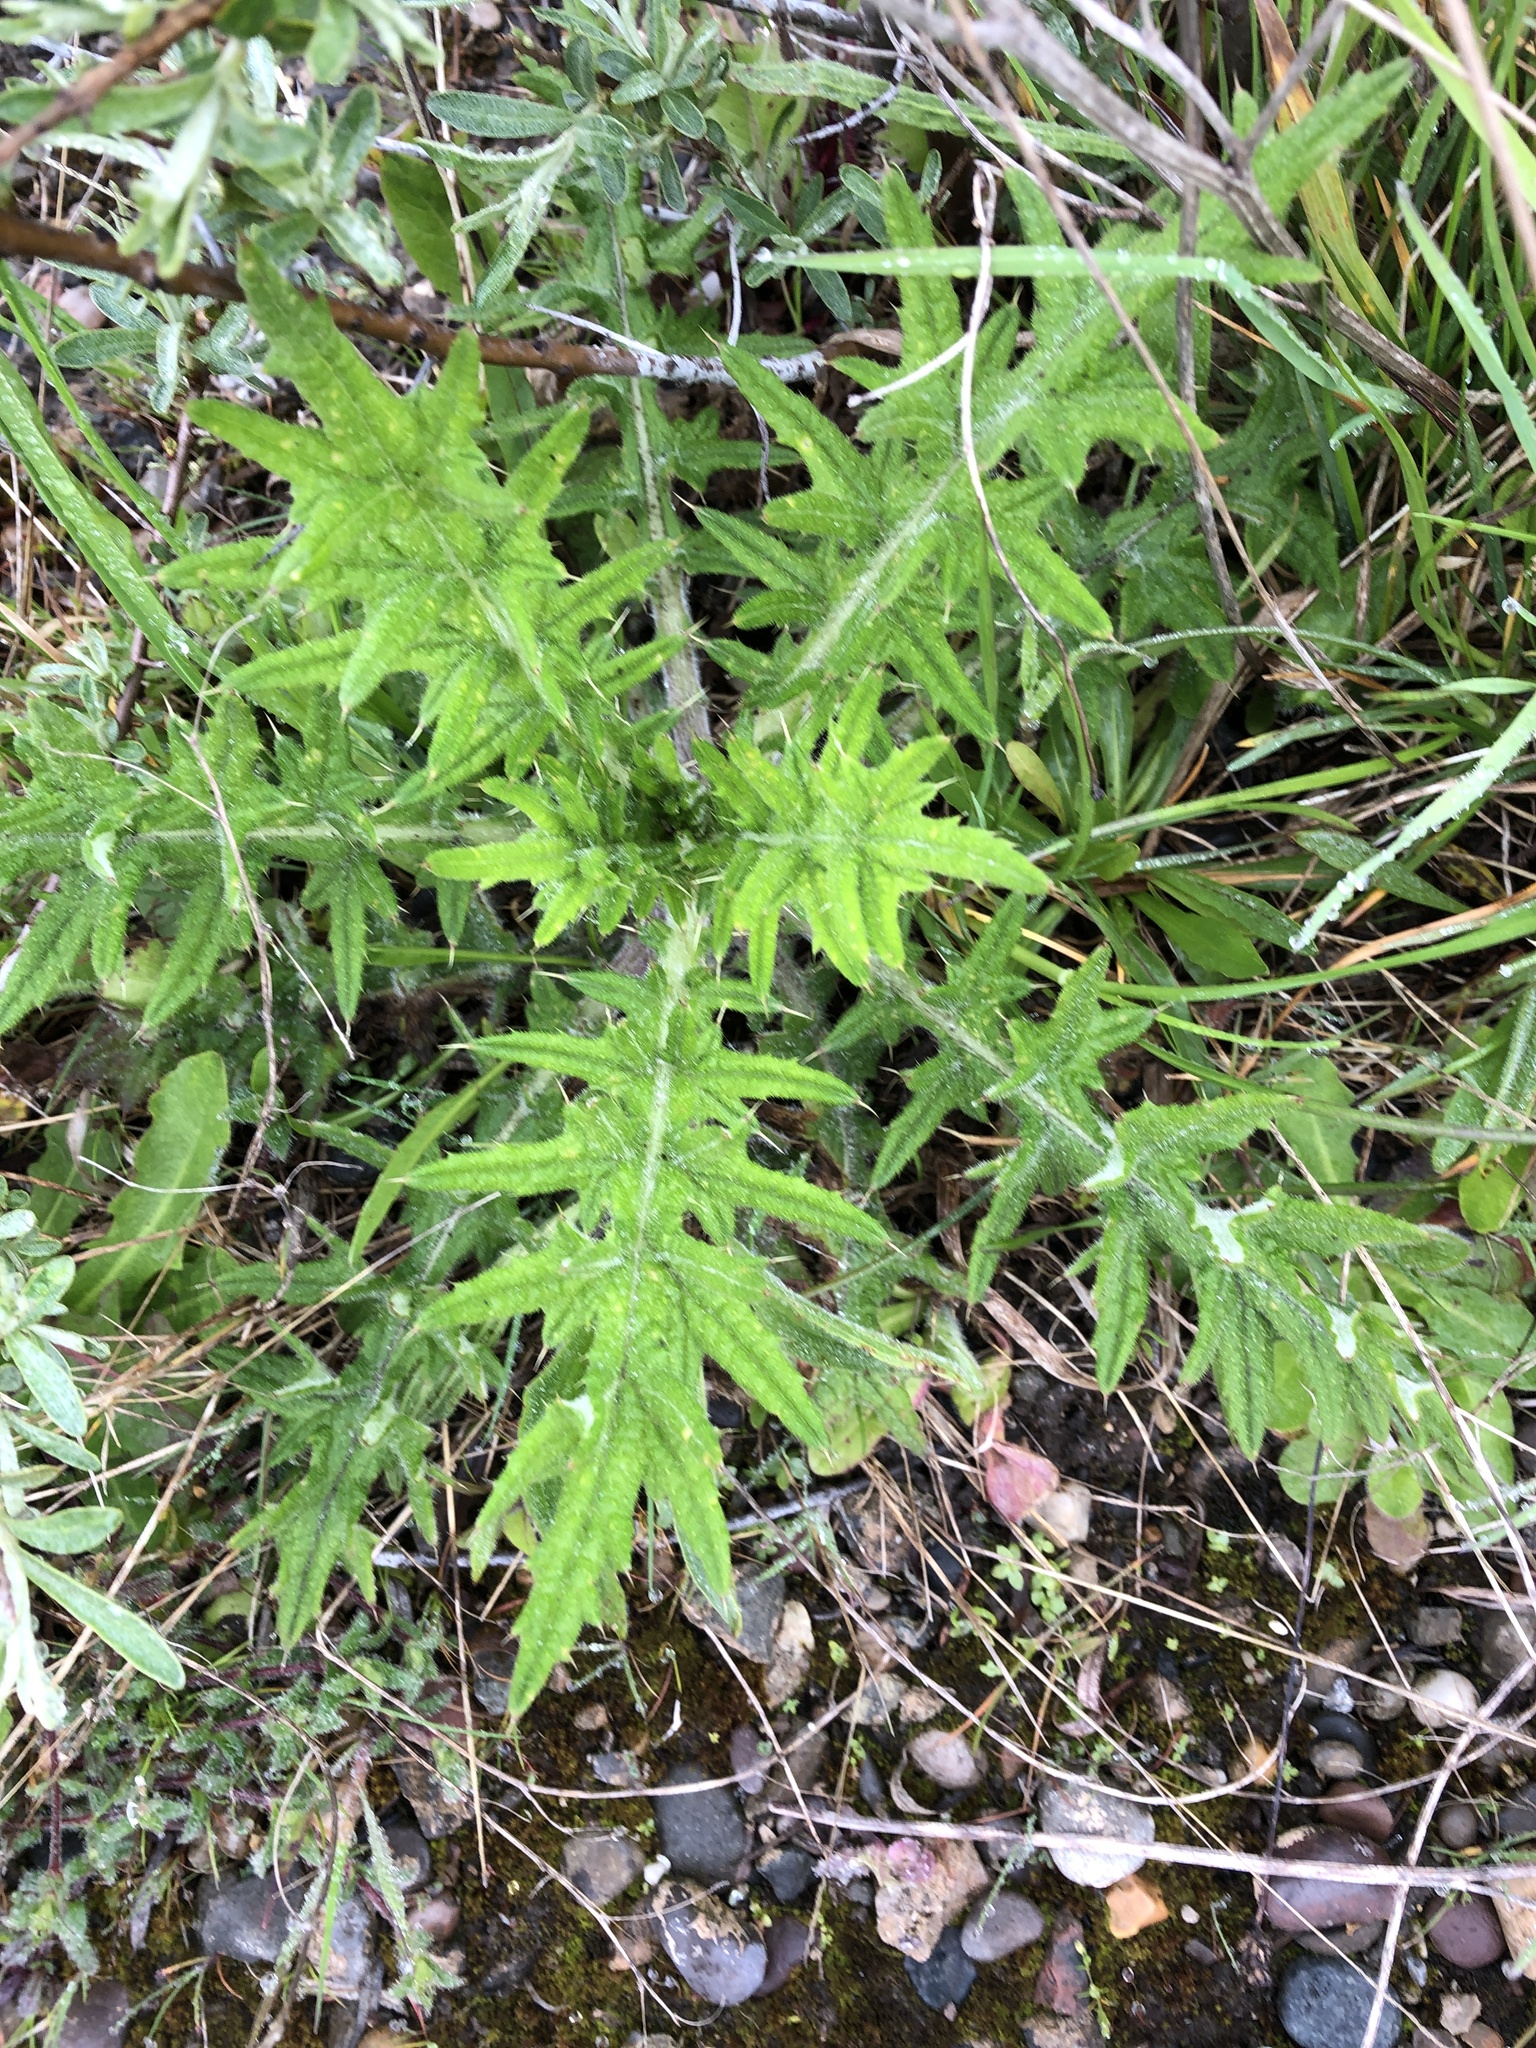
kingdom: Plantae
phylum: Tracheophyta
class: Magnoliopsida
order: Asterales
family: Asteraceae
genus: Cirsium
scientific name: Cirsium vulgare
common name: Bull thistle
